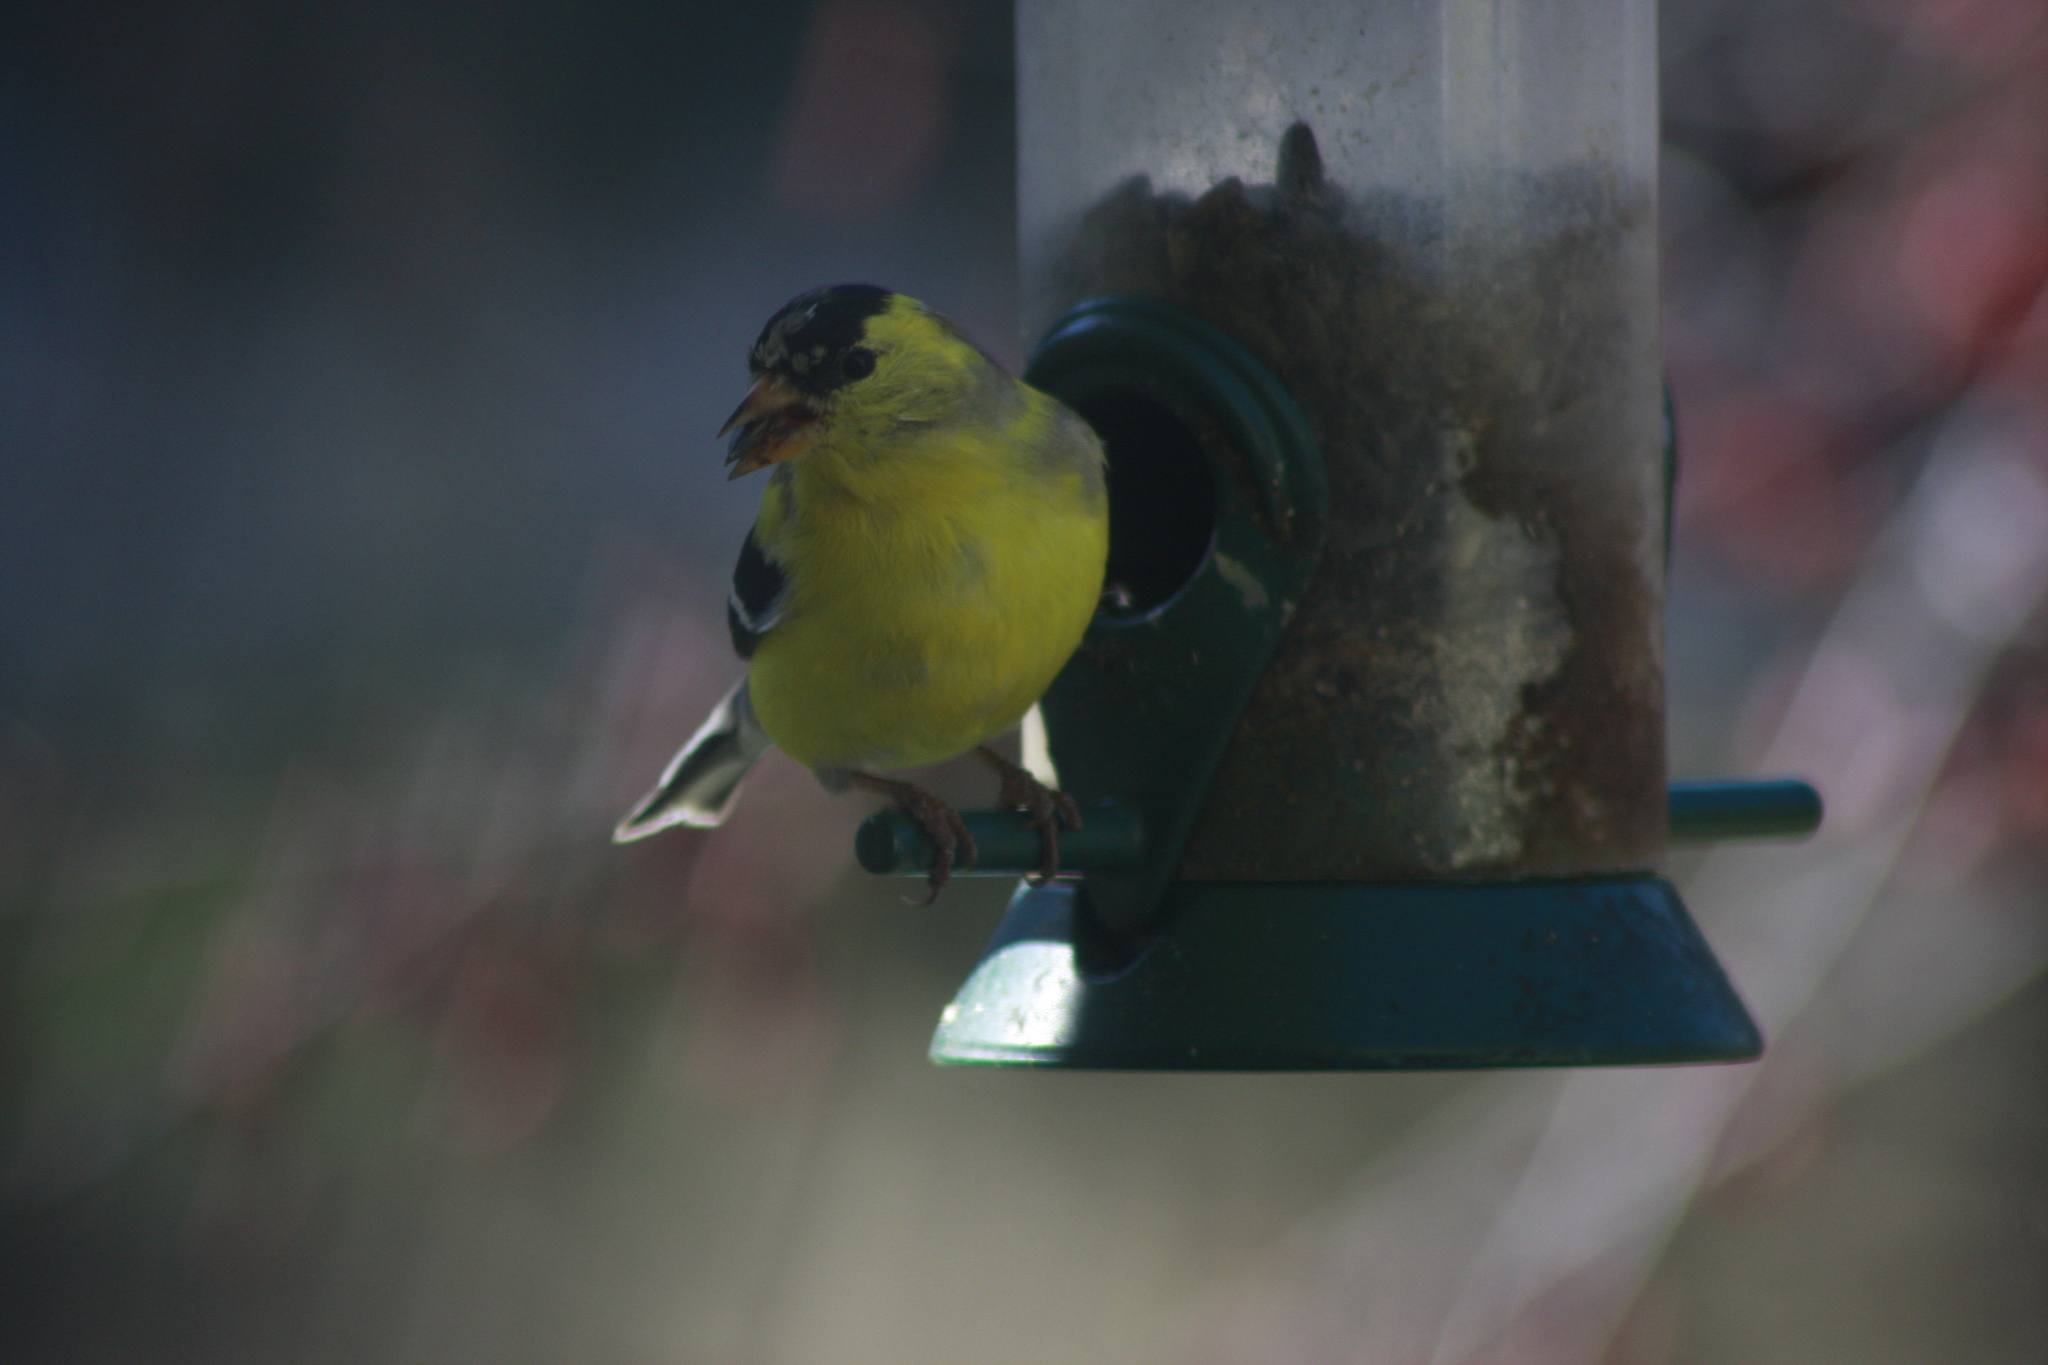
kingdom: Animalia
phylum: Chordata
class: Aves
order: Passeriformes
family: Fringillidae
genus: Spinus
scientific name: Spinus tristis
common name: American goldfinch
